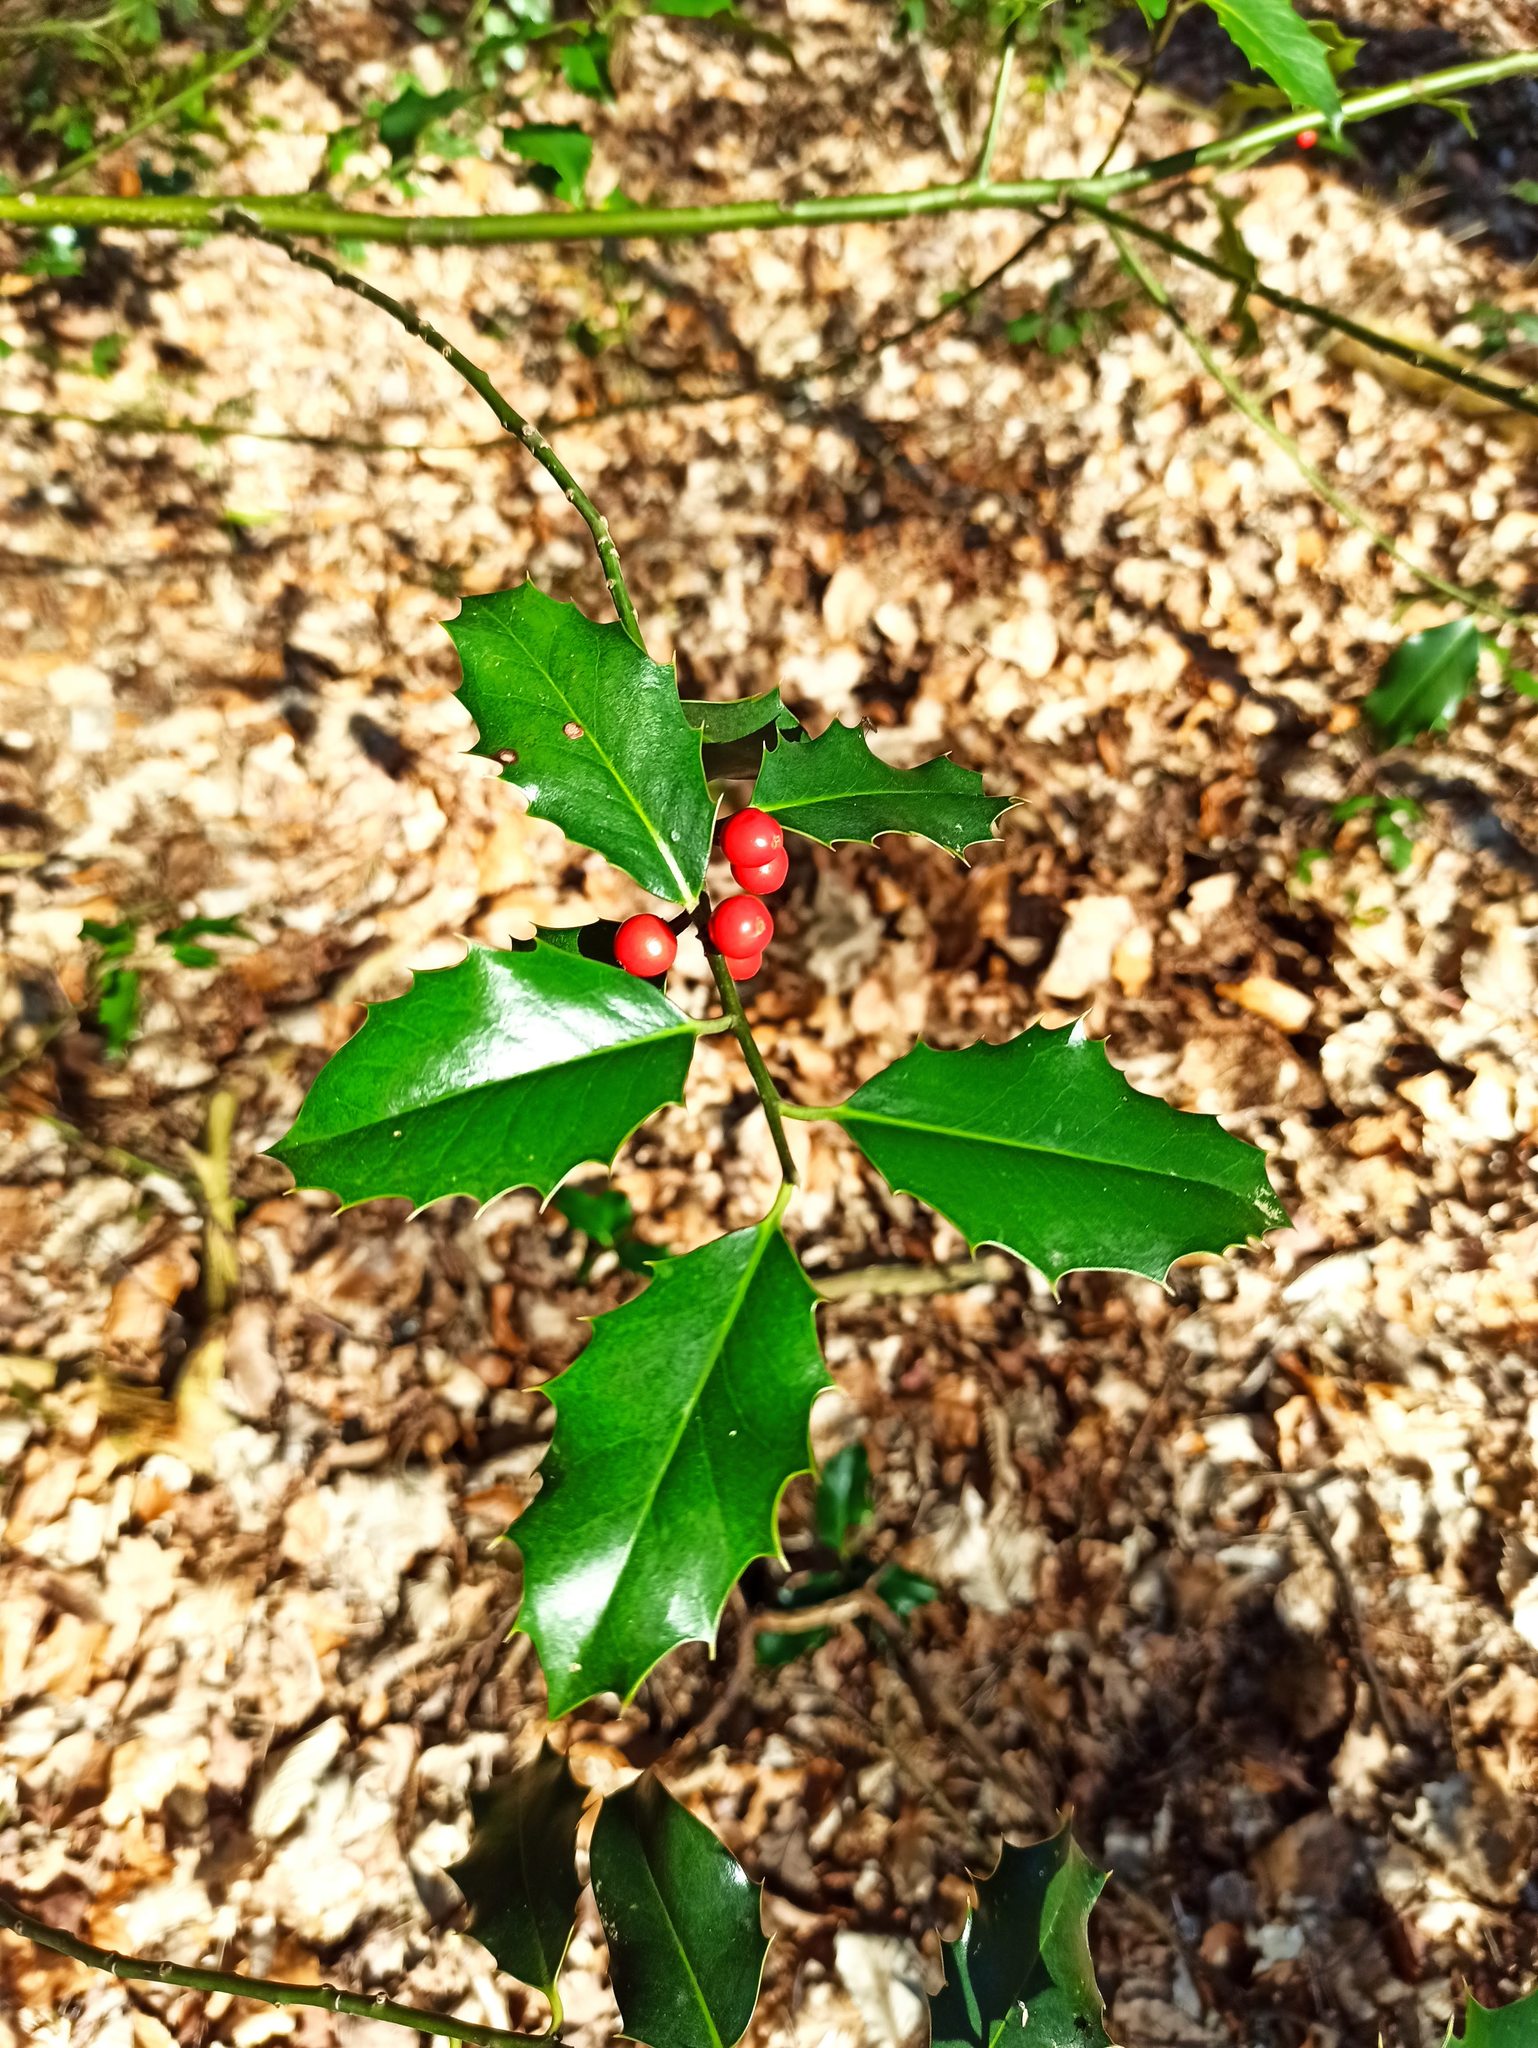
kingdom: Plantae
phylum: Tracheophyta
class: Magnoliopsida
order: Aquifoliales
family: Aquifoliaceae
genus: Ilex
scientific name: Ilex aquifolium
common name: English holly
